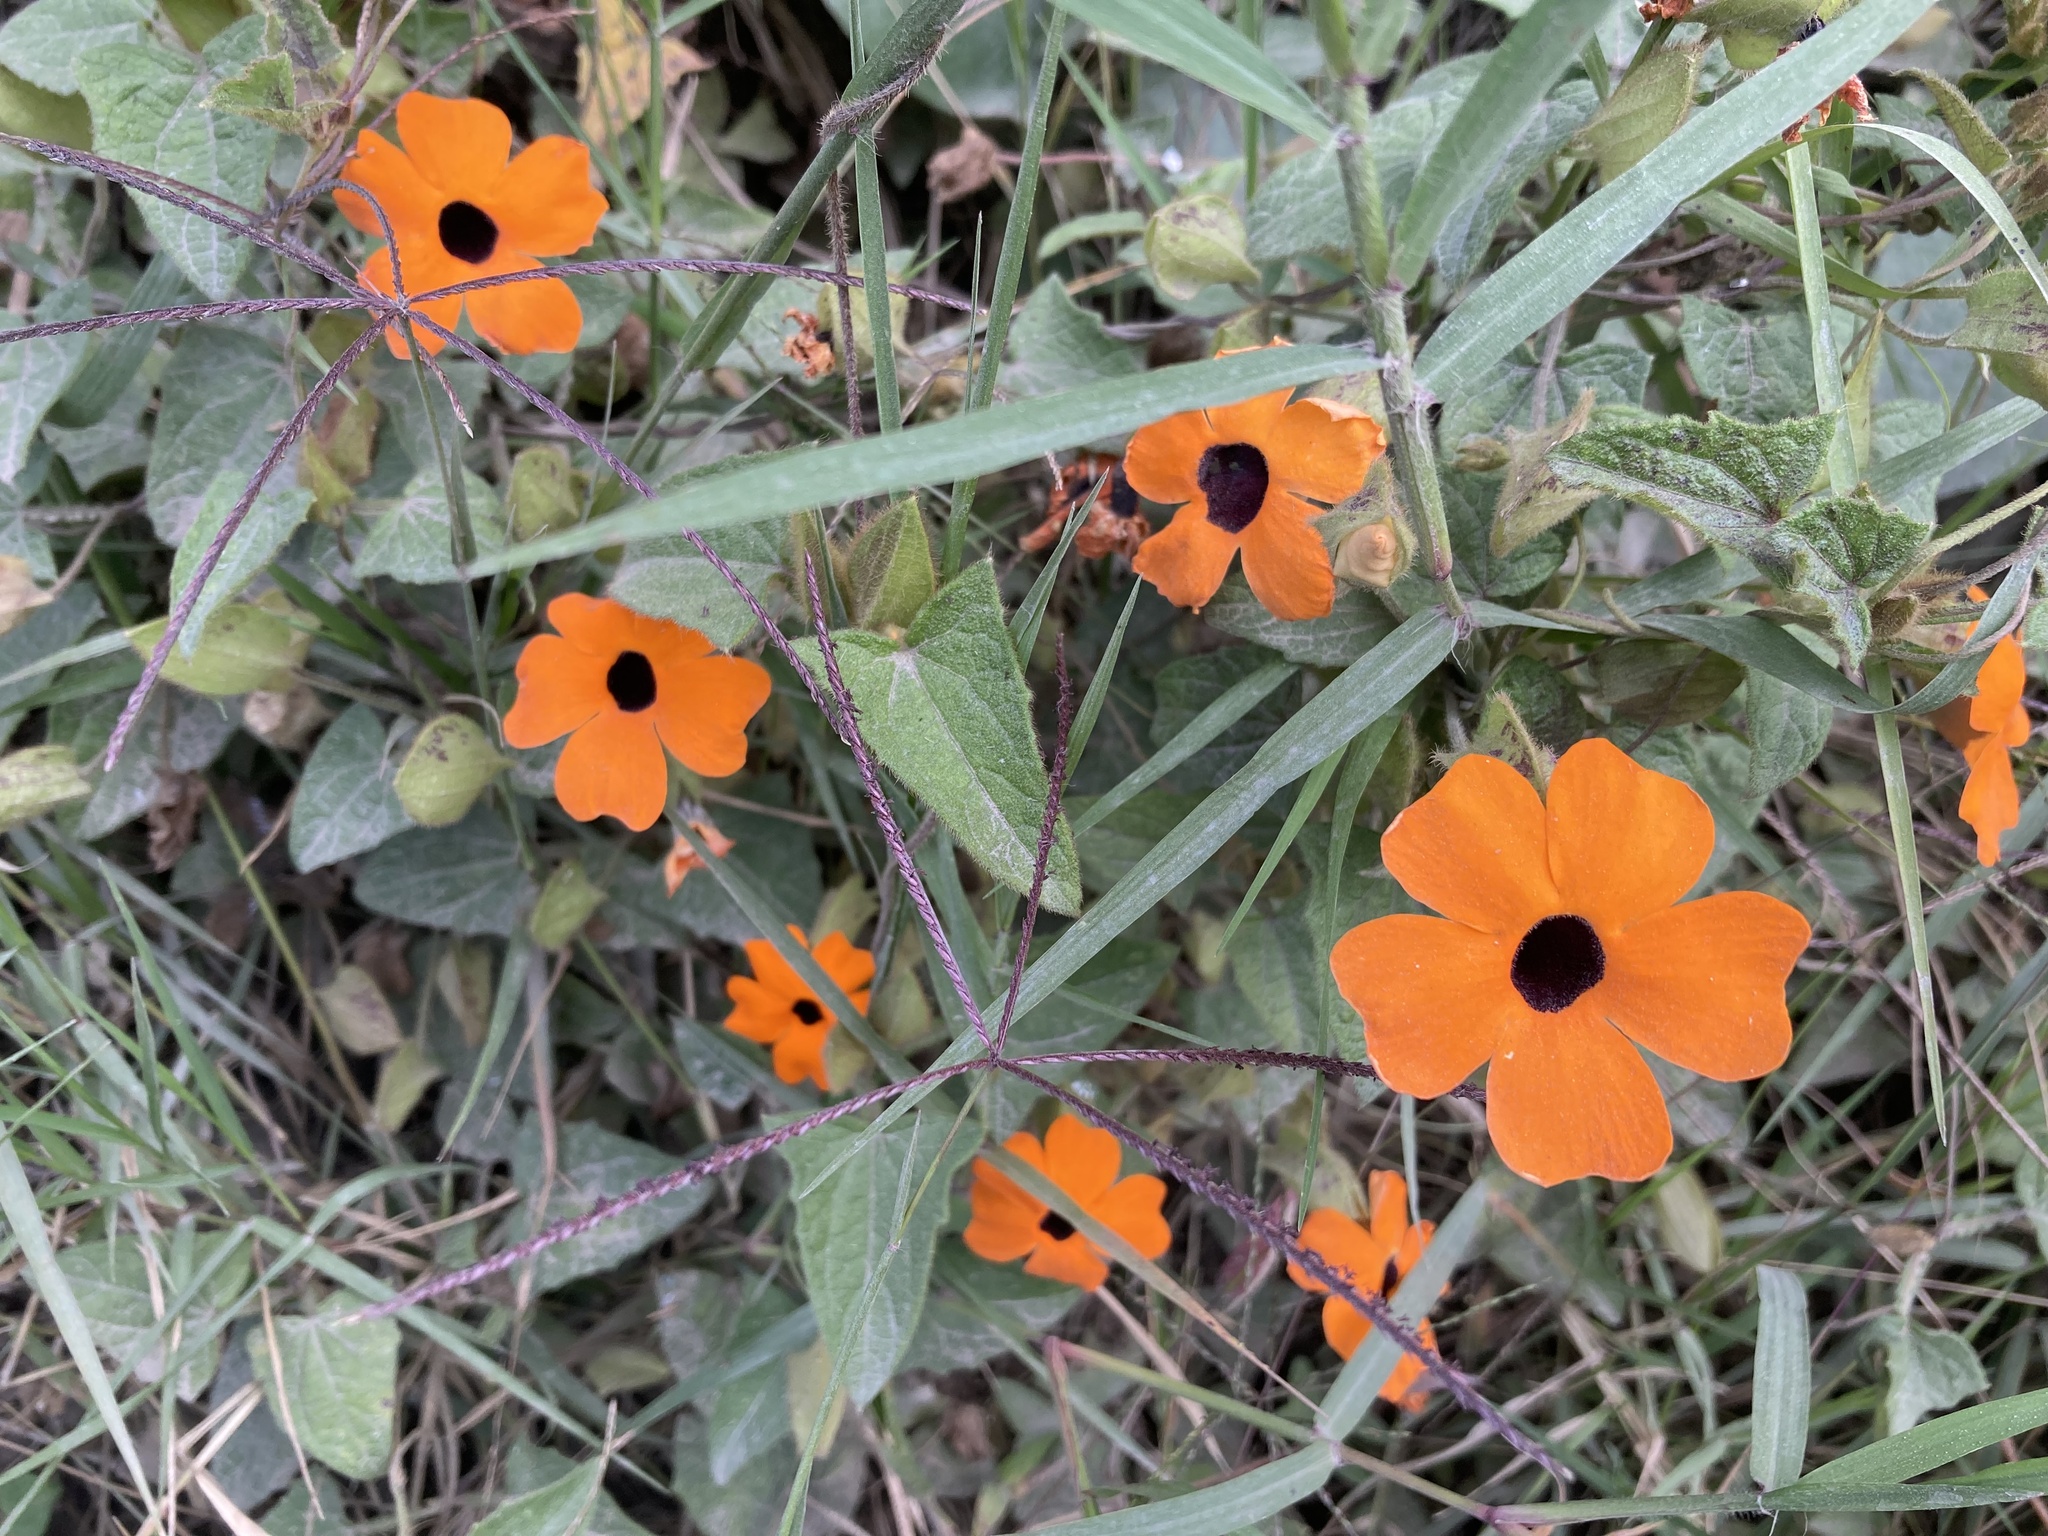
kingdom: Plantae
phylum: Tracheophyta
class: Magnoliopsida
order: Lamiales
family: Acanthaceae
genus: Thunbergia
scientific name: Thunbergia alata
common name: Blackeyed susan vine
